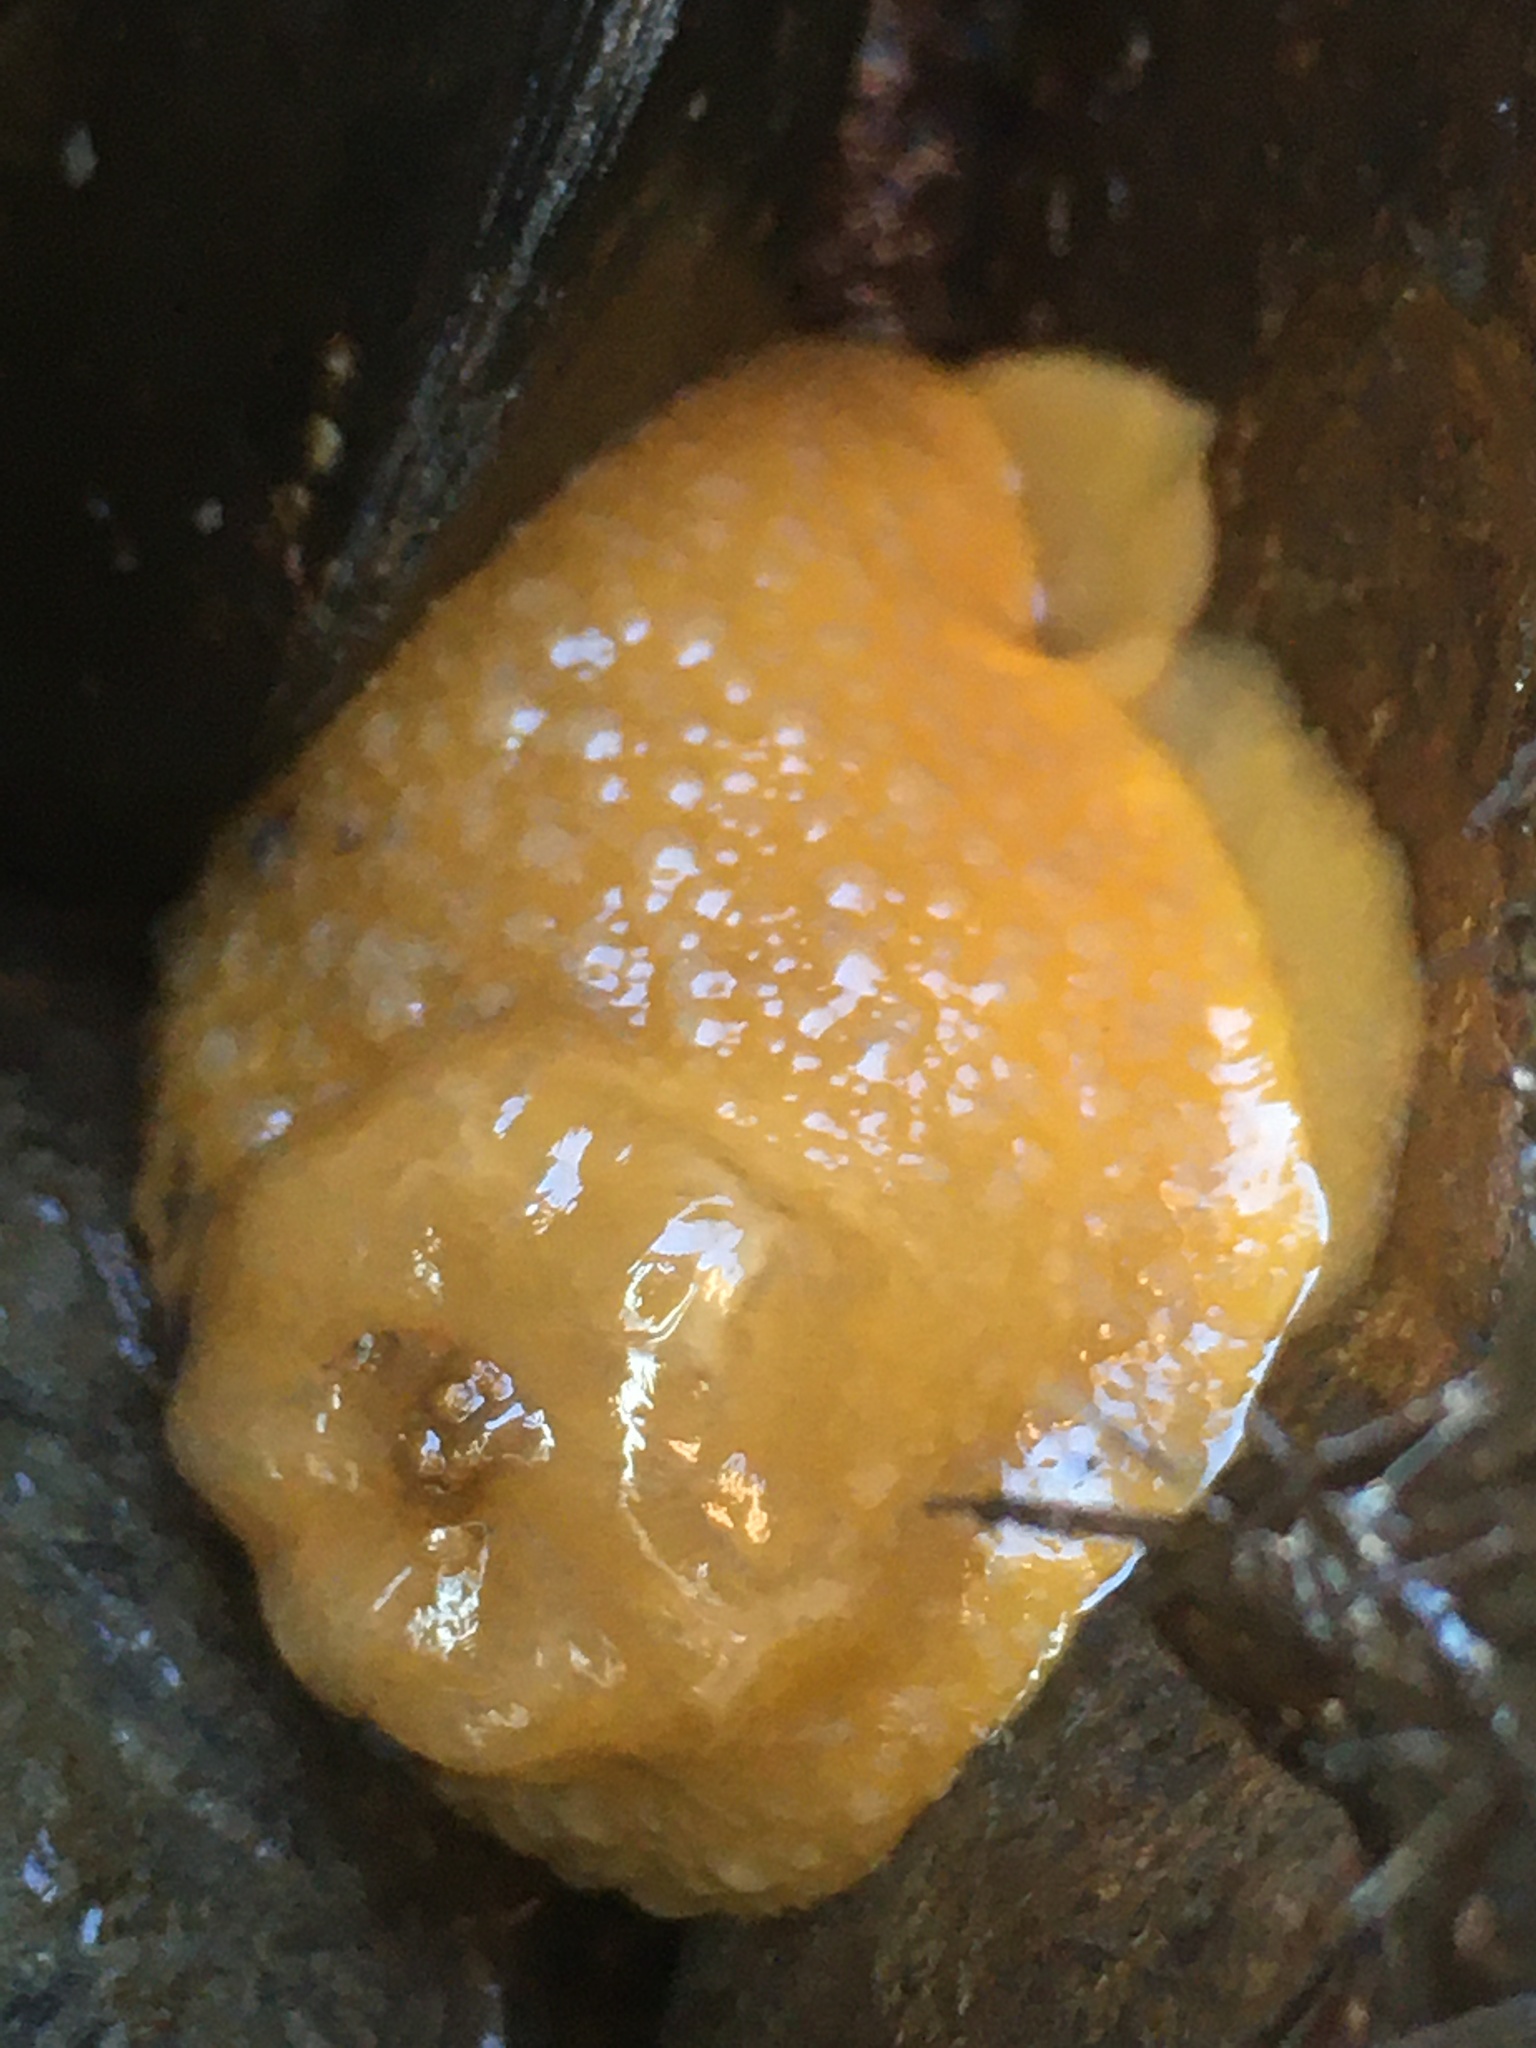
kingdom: Animalia
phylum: Mollusca
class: Gastropoda
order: Nudibranchia
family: Dorididae
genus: Doris
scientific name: Doris montereyensis
